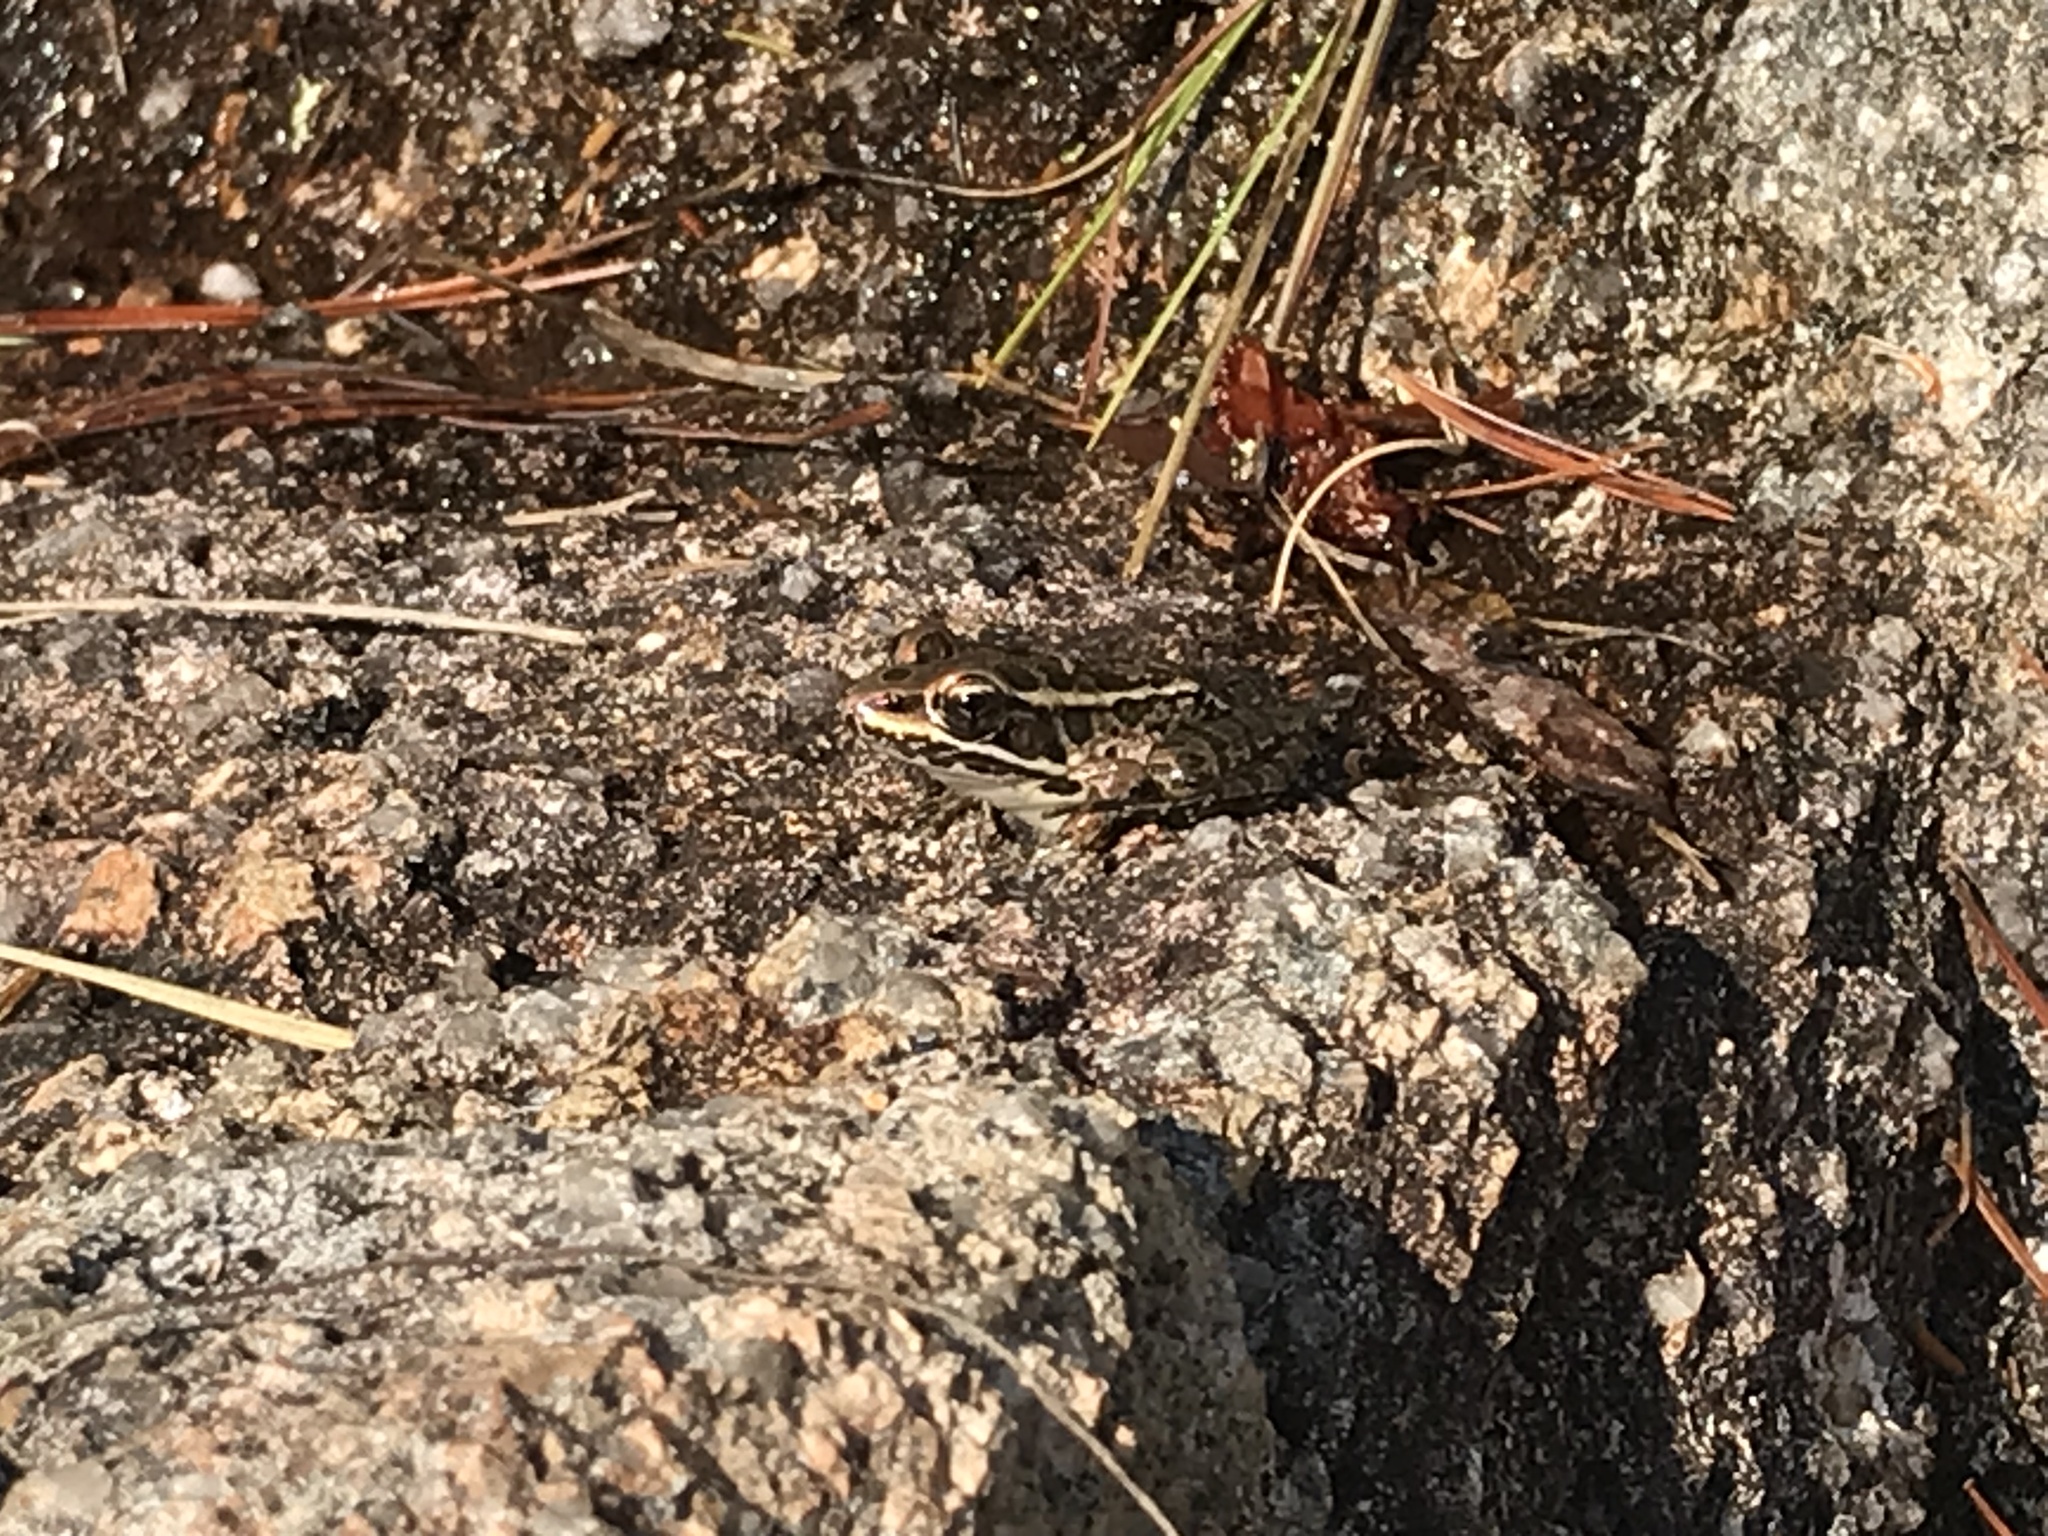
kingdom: Animalia
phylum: Chordata
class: Amphibia
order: Anura
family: Ranidae
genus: Lithobates
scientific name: Lithobates palustris
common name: Pickerel frog
